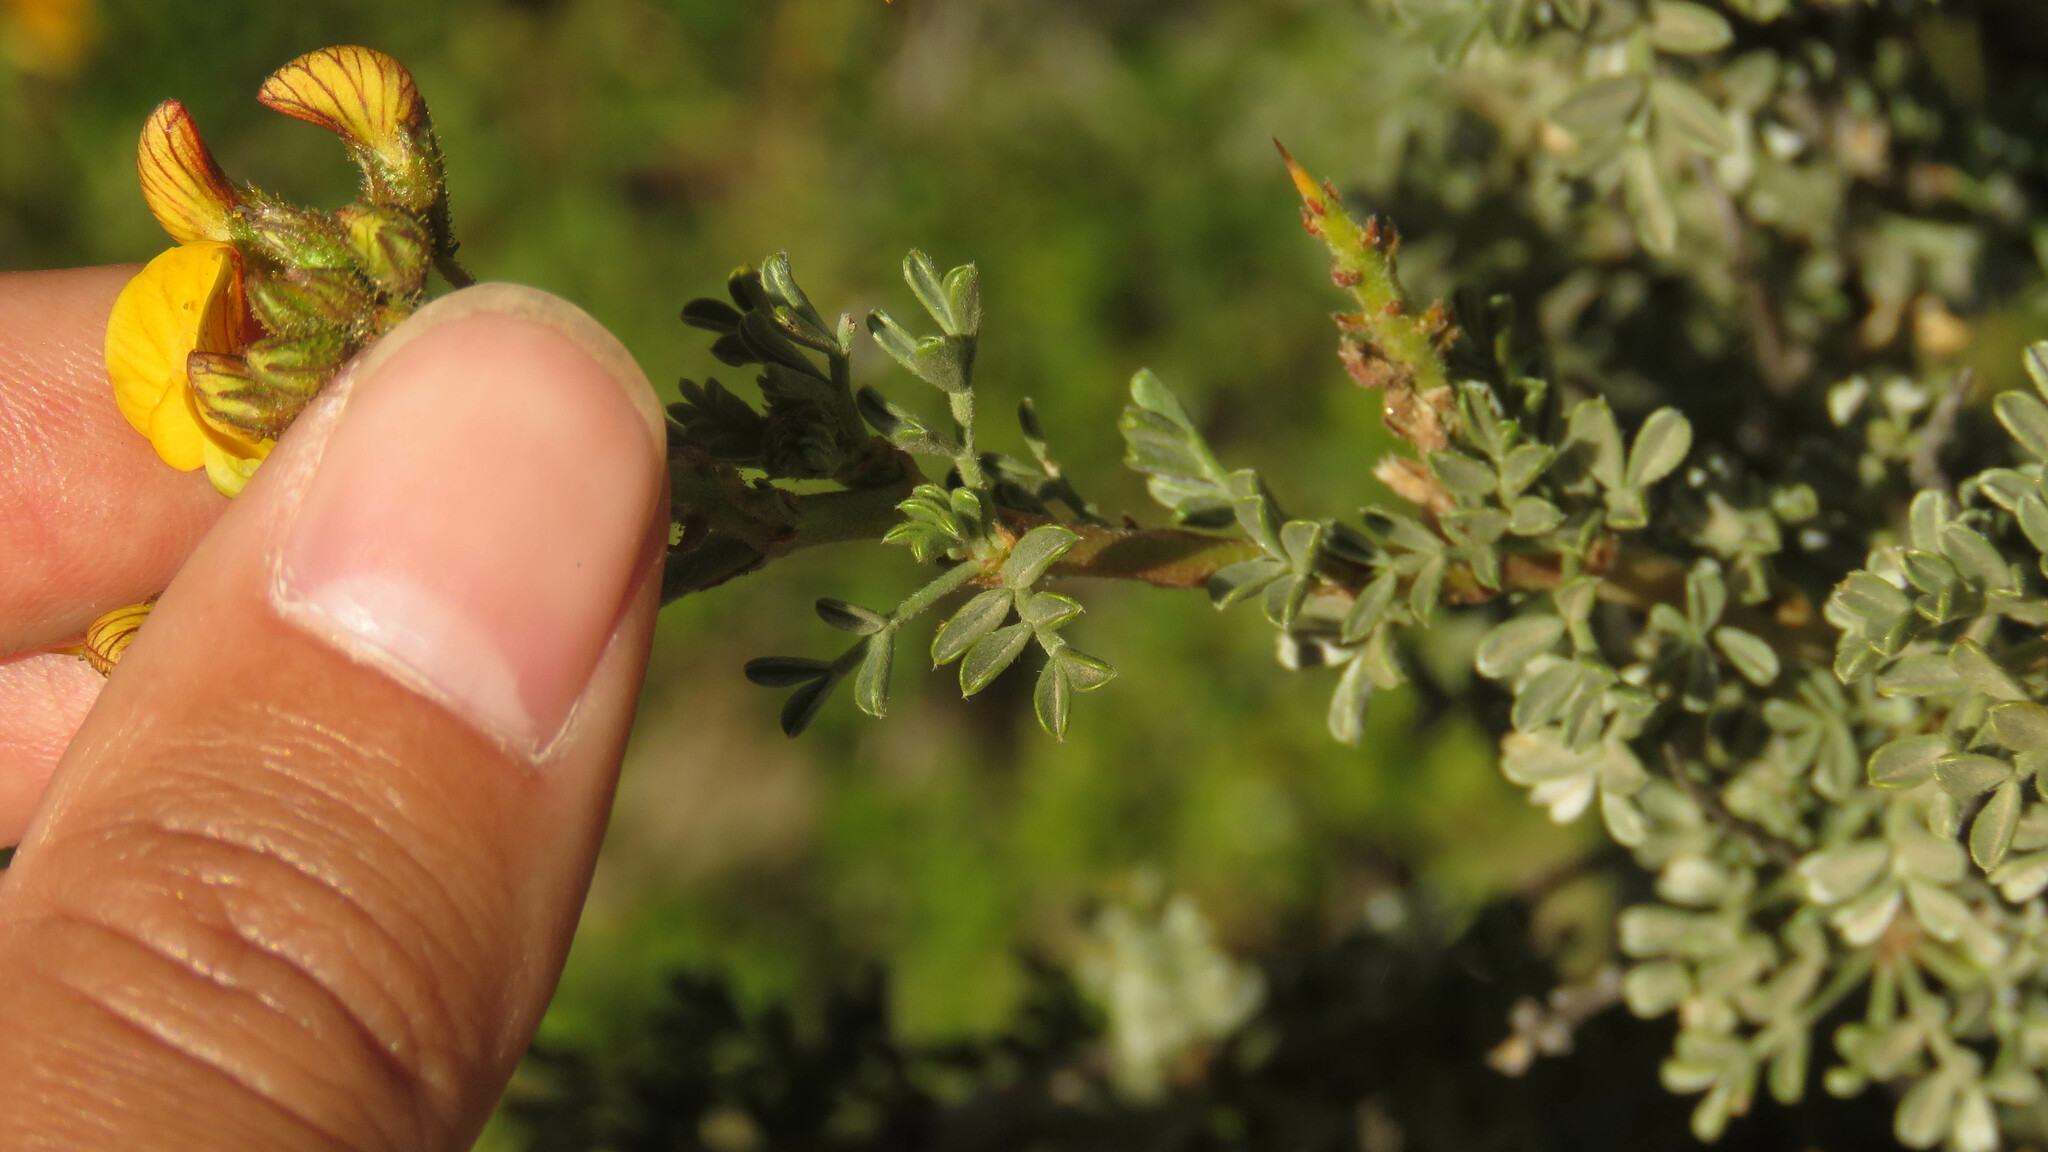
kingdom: Plantae
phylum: Tracheophyta
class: Magnoliopsida
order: Fabales
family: Fabaceae
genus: Adesmia
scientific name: Adesmia volckmannii
